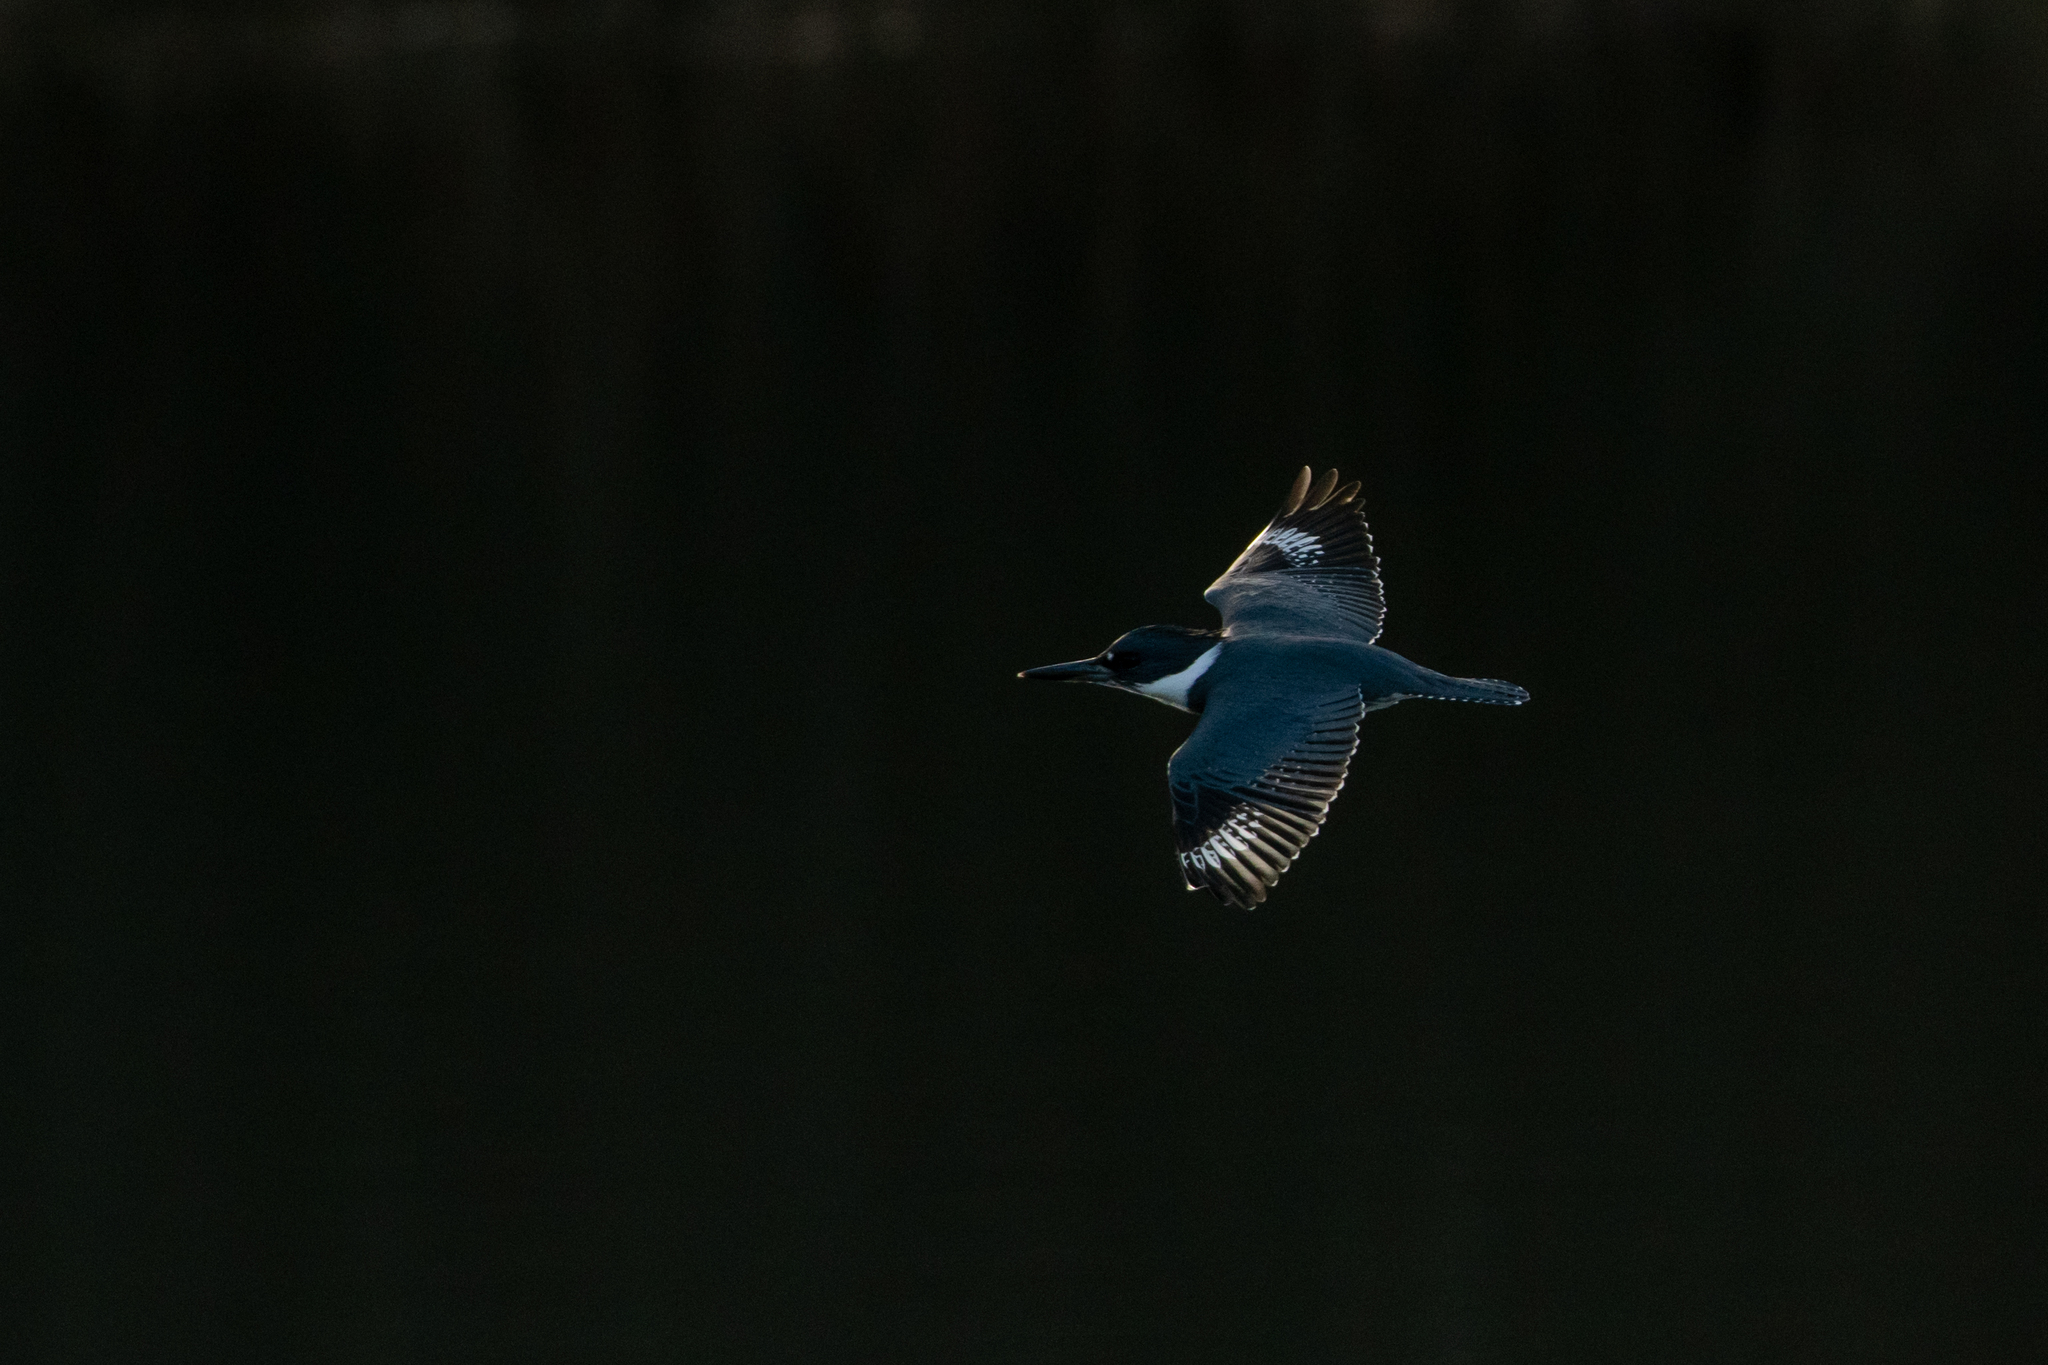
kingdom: Animalia
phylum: Chordata
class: Aves
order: Coraciiformes
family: Alcedinidae
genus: Megaceryle
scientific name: Megaceryle alcyon
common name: Belted kingfisher
